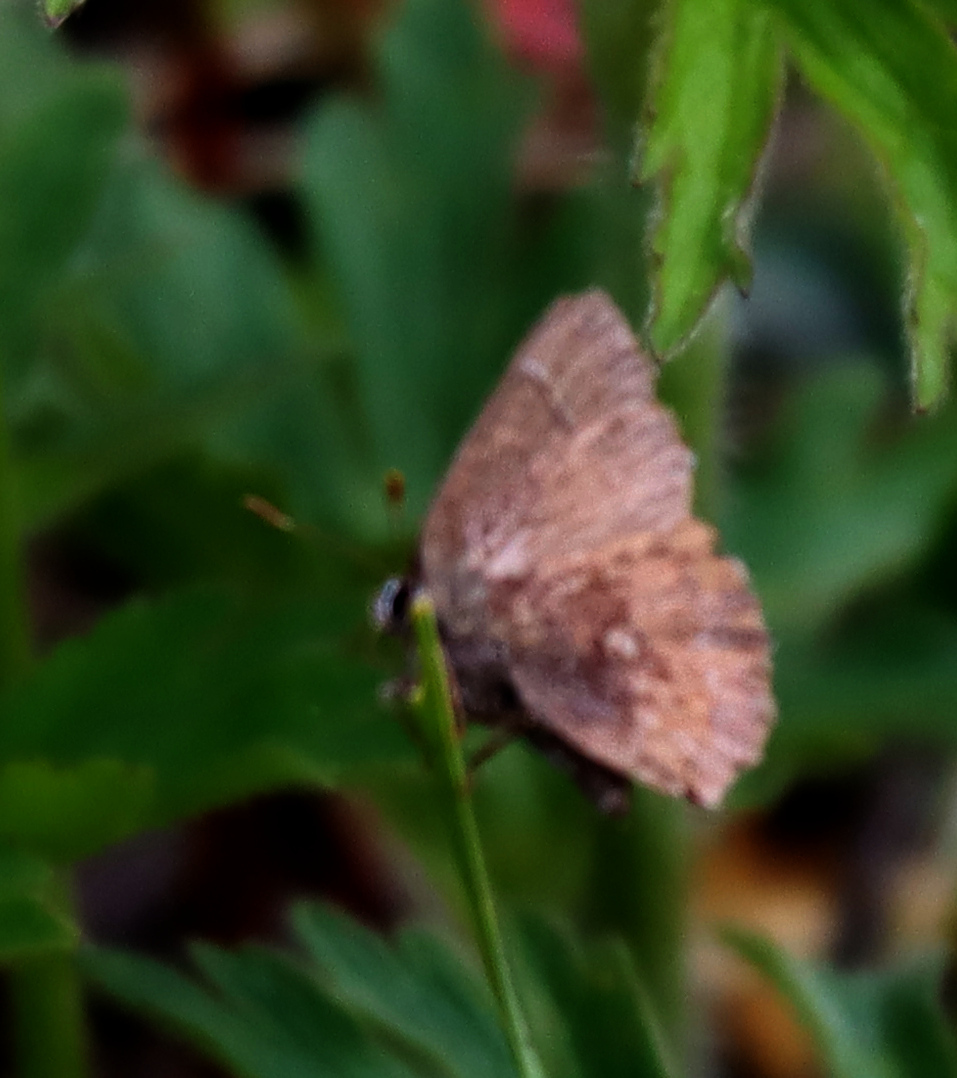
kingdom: Animalia
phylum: Arthropoda
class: Insecta
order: Lepidoptera
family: Lycaenidae
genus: Incisalia
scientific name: Incisalia irioides
